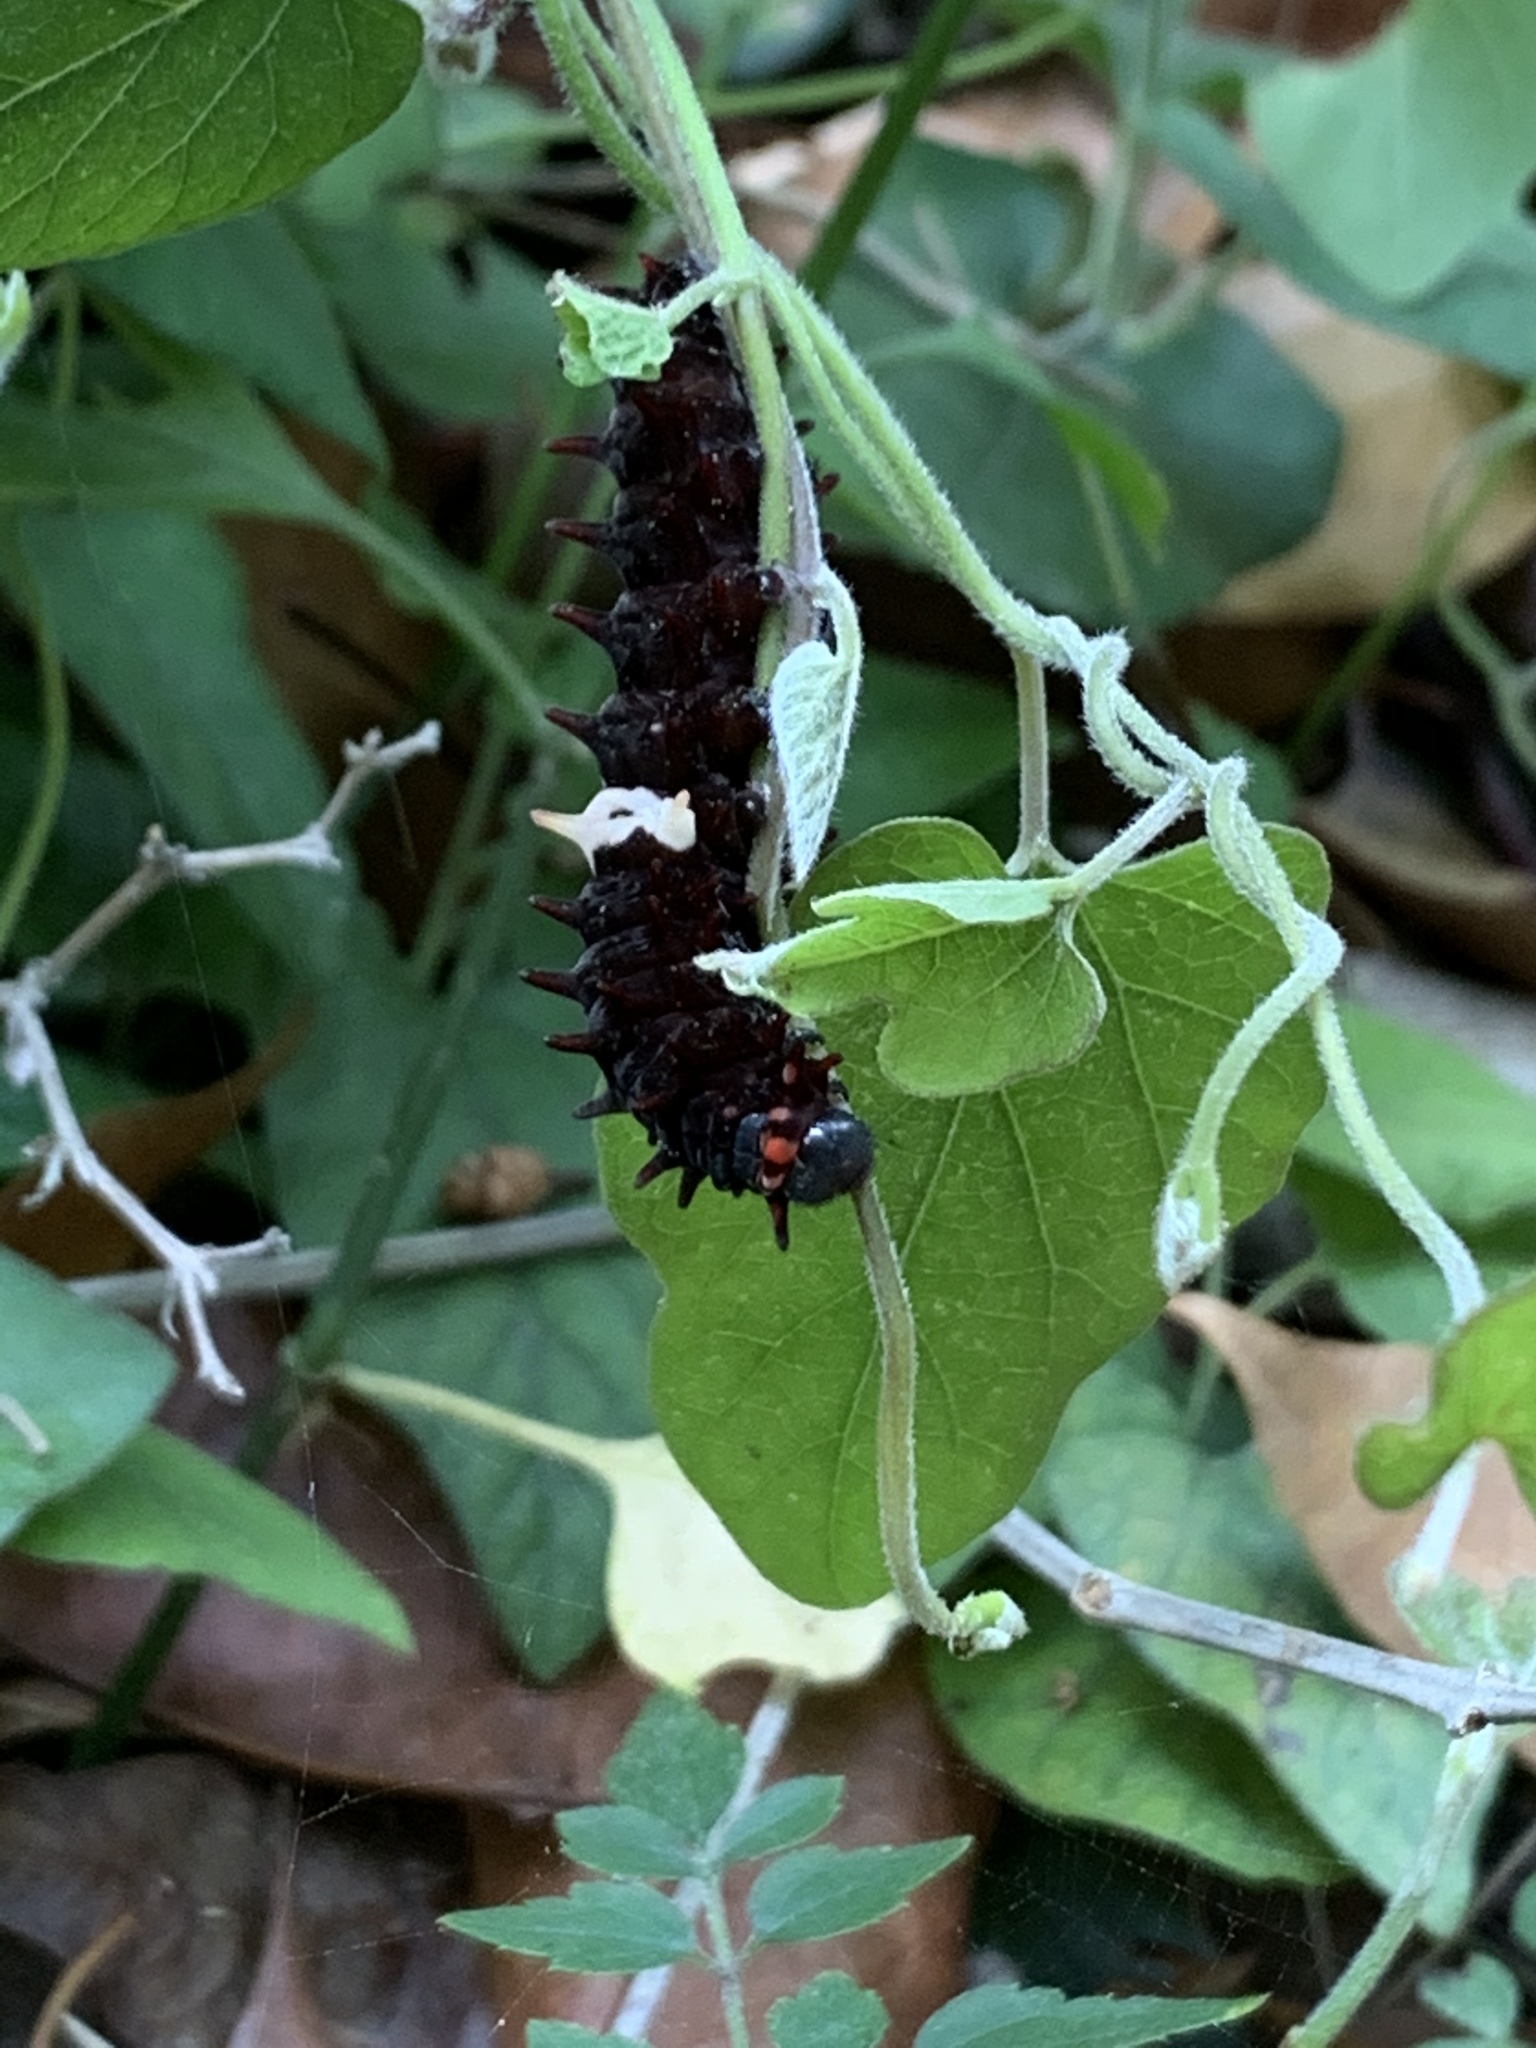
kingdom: Animalia
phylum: Arthropoda
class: Insecta
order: Lepidoptera
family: Papilionidae
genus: Pachliopta
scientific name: Pachliopta aristolochiae
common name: Common rose
